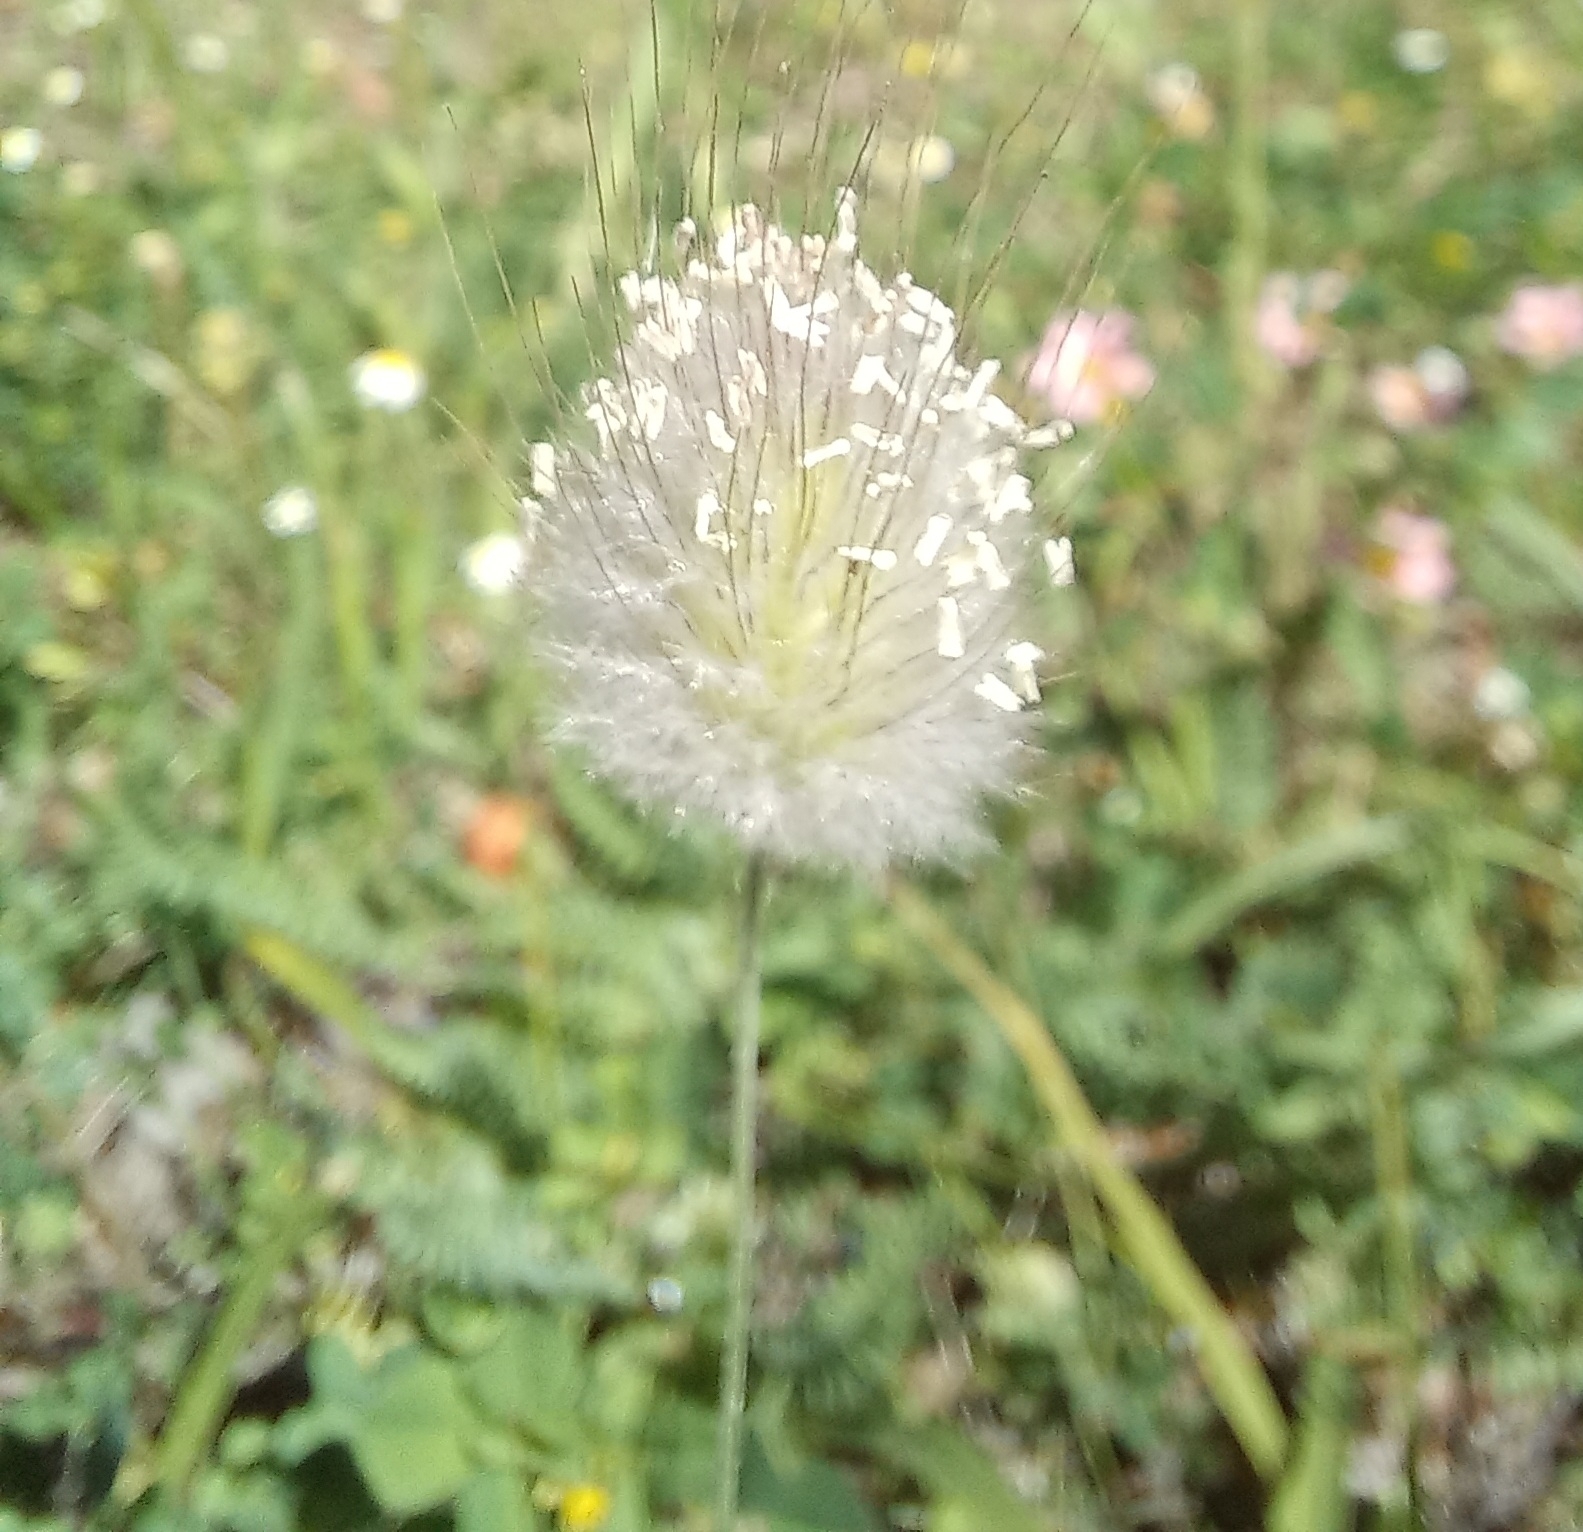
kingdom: Plantae
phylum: Tracheophyta
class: Liliopsida
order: Poales
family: Poaceae
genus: Lagurus
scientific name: Lagurus ovatus
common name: Hare's-tail
